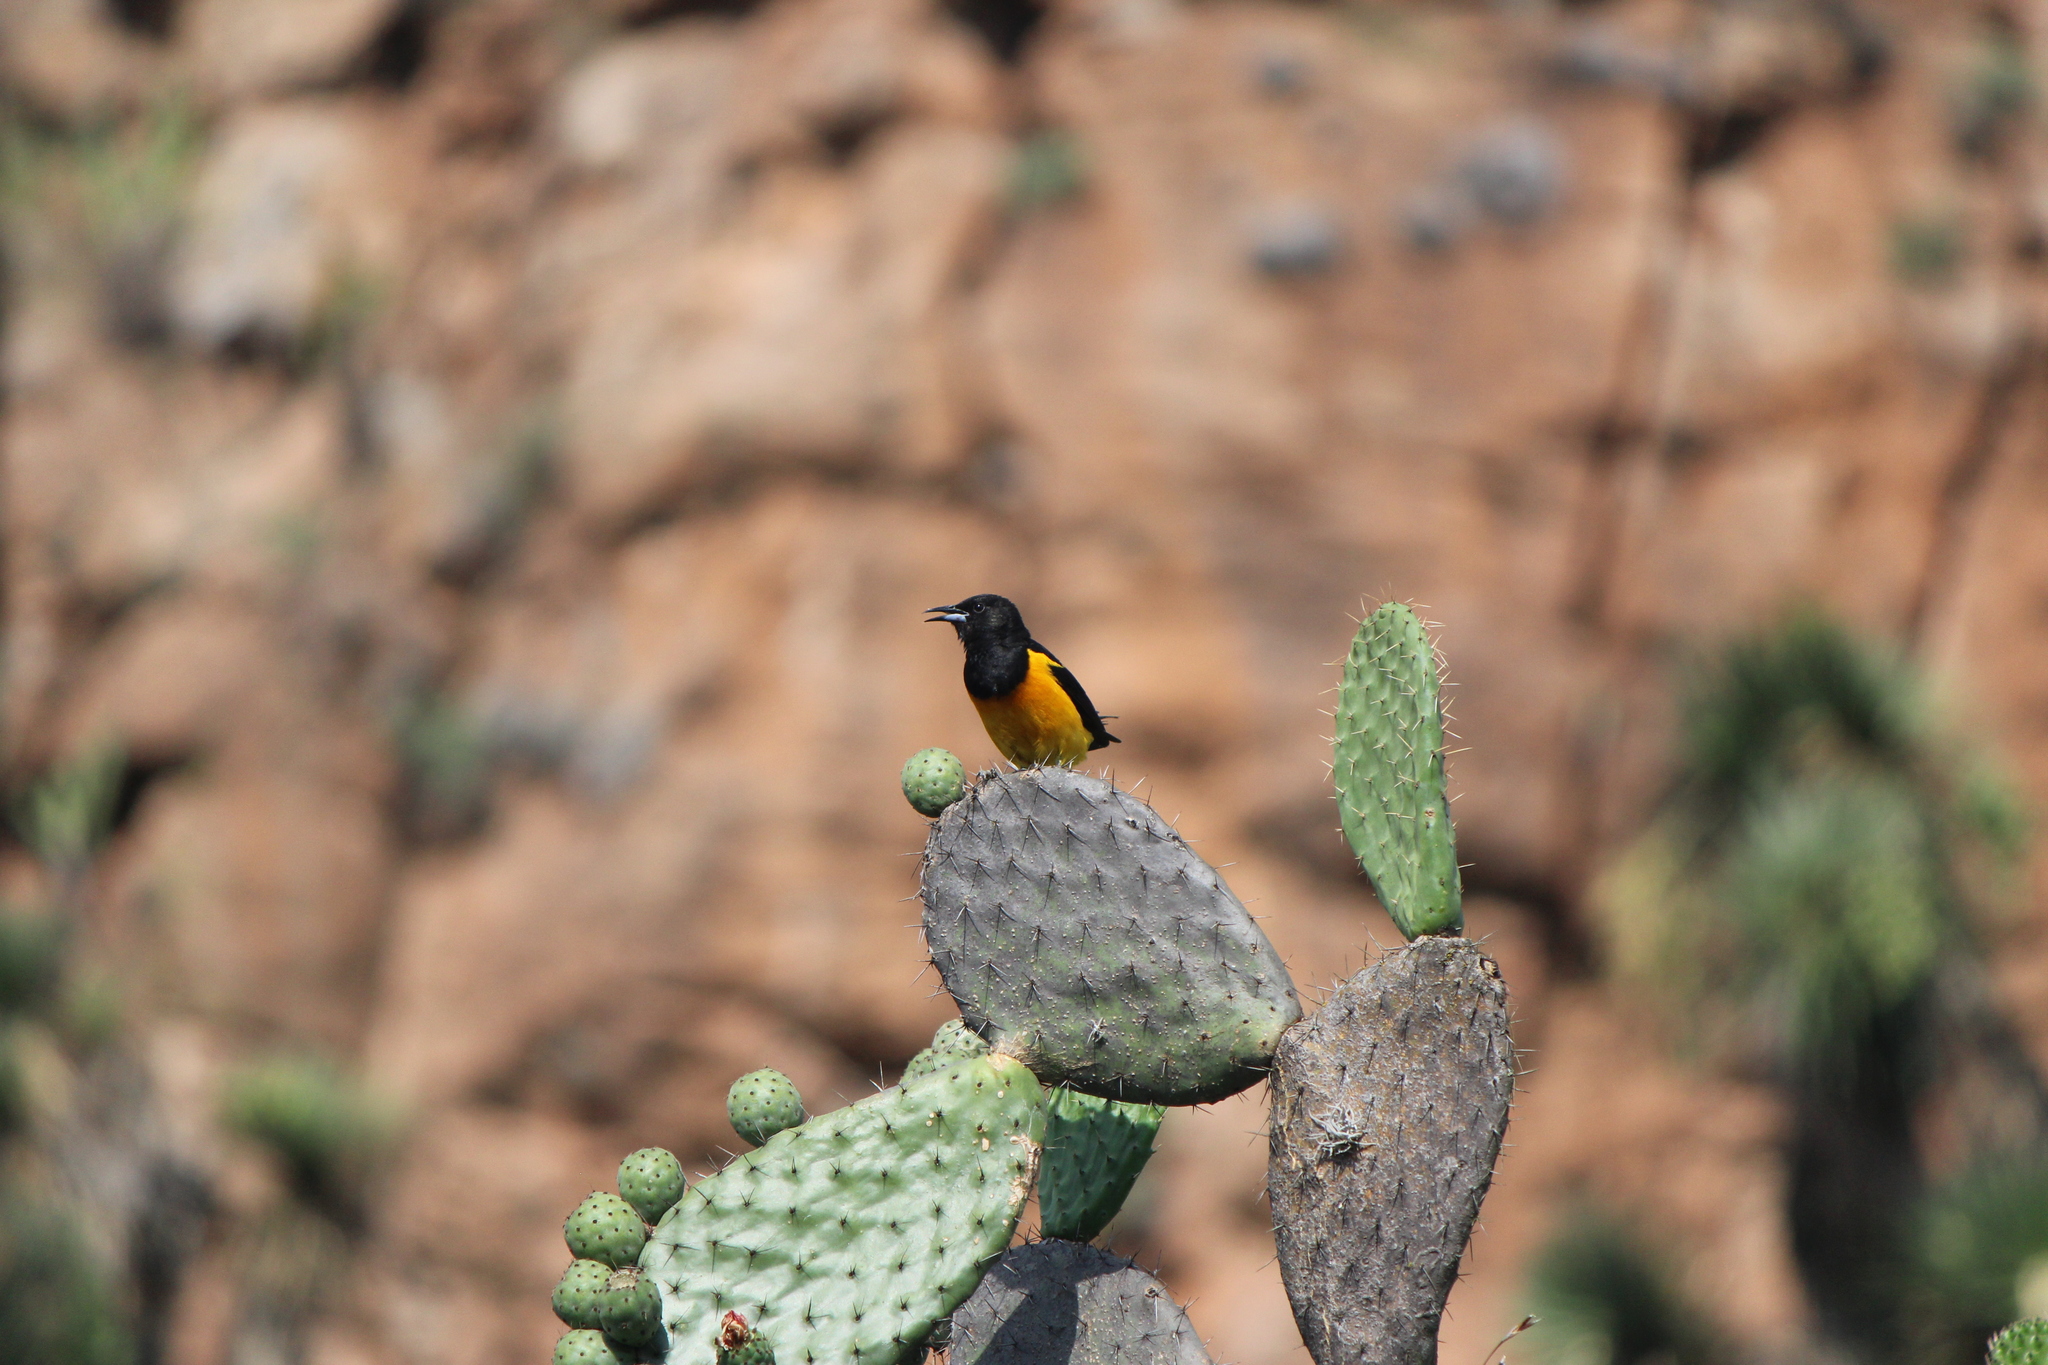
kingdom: Animalia
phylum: Chordata
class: Aves
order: Passeriformes
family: Icteridae
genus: Icterus
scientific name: Icterus wagleri
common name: Black-vented oriole
